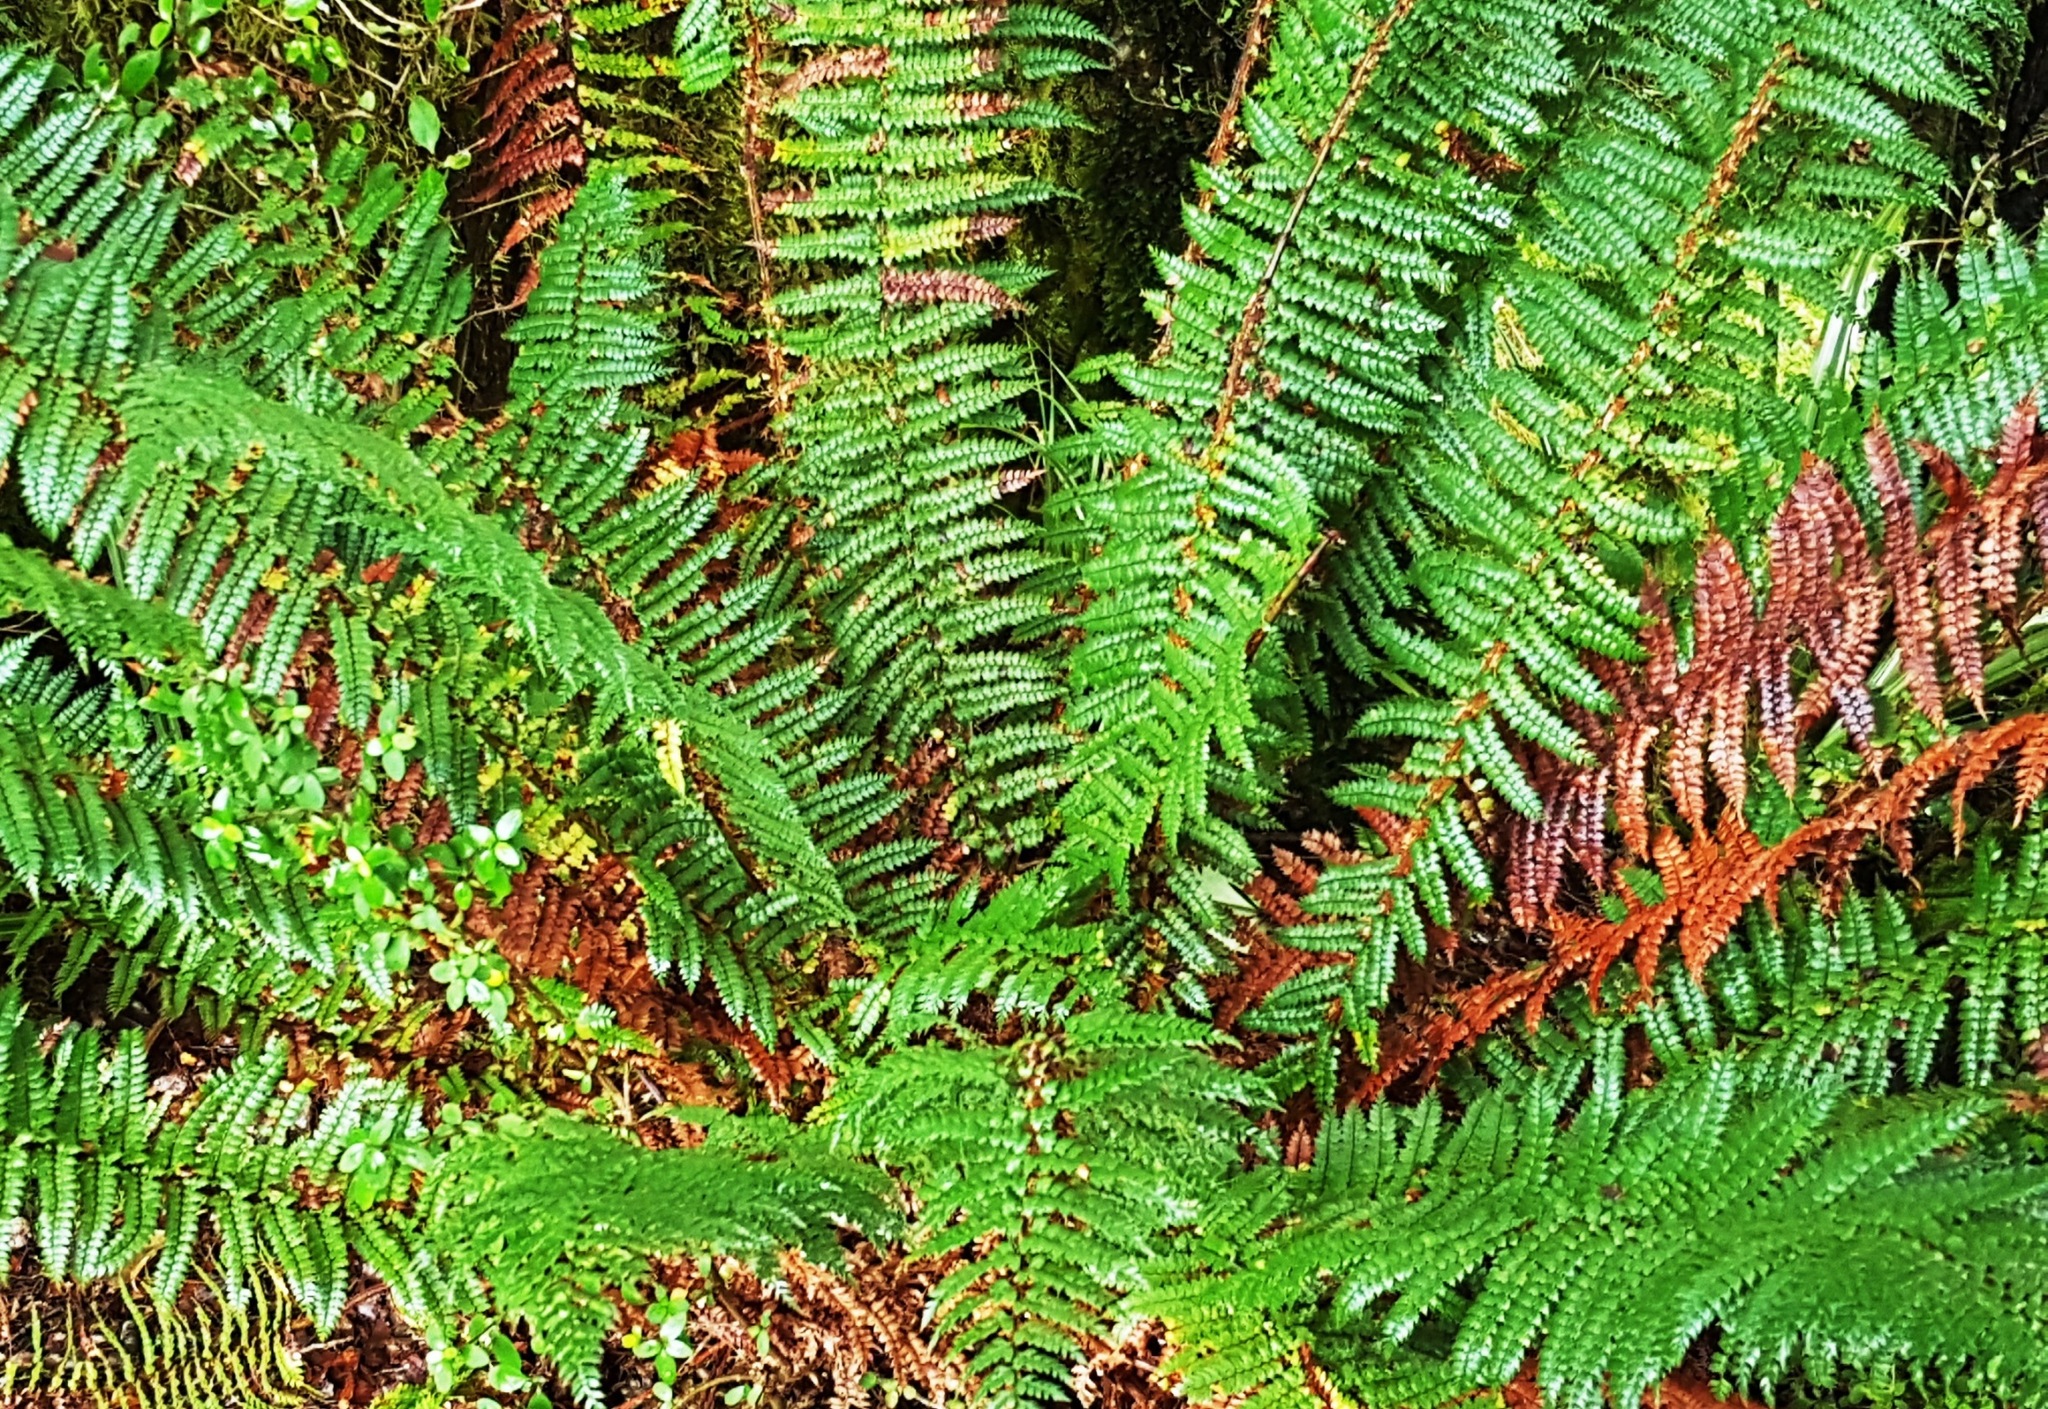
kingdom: Plantae
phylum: Tracheophyta
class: Polypodiopsida
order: Polypodiales
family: Dryopteridaceae
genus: Polystichum
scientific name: Polystichum vestitum
